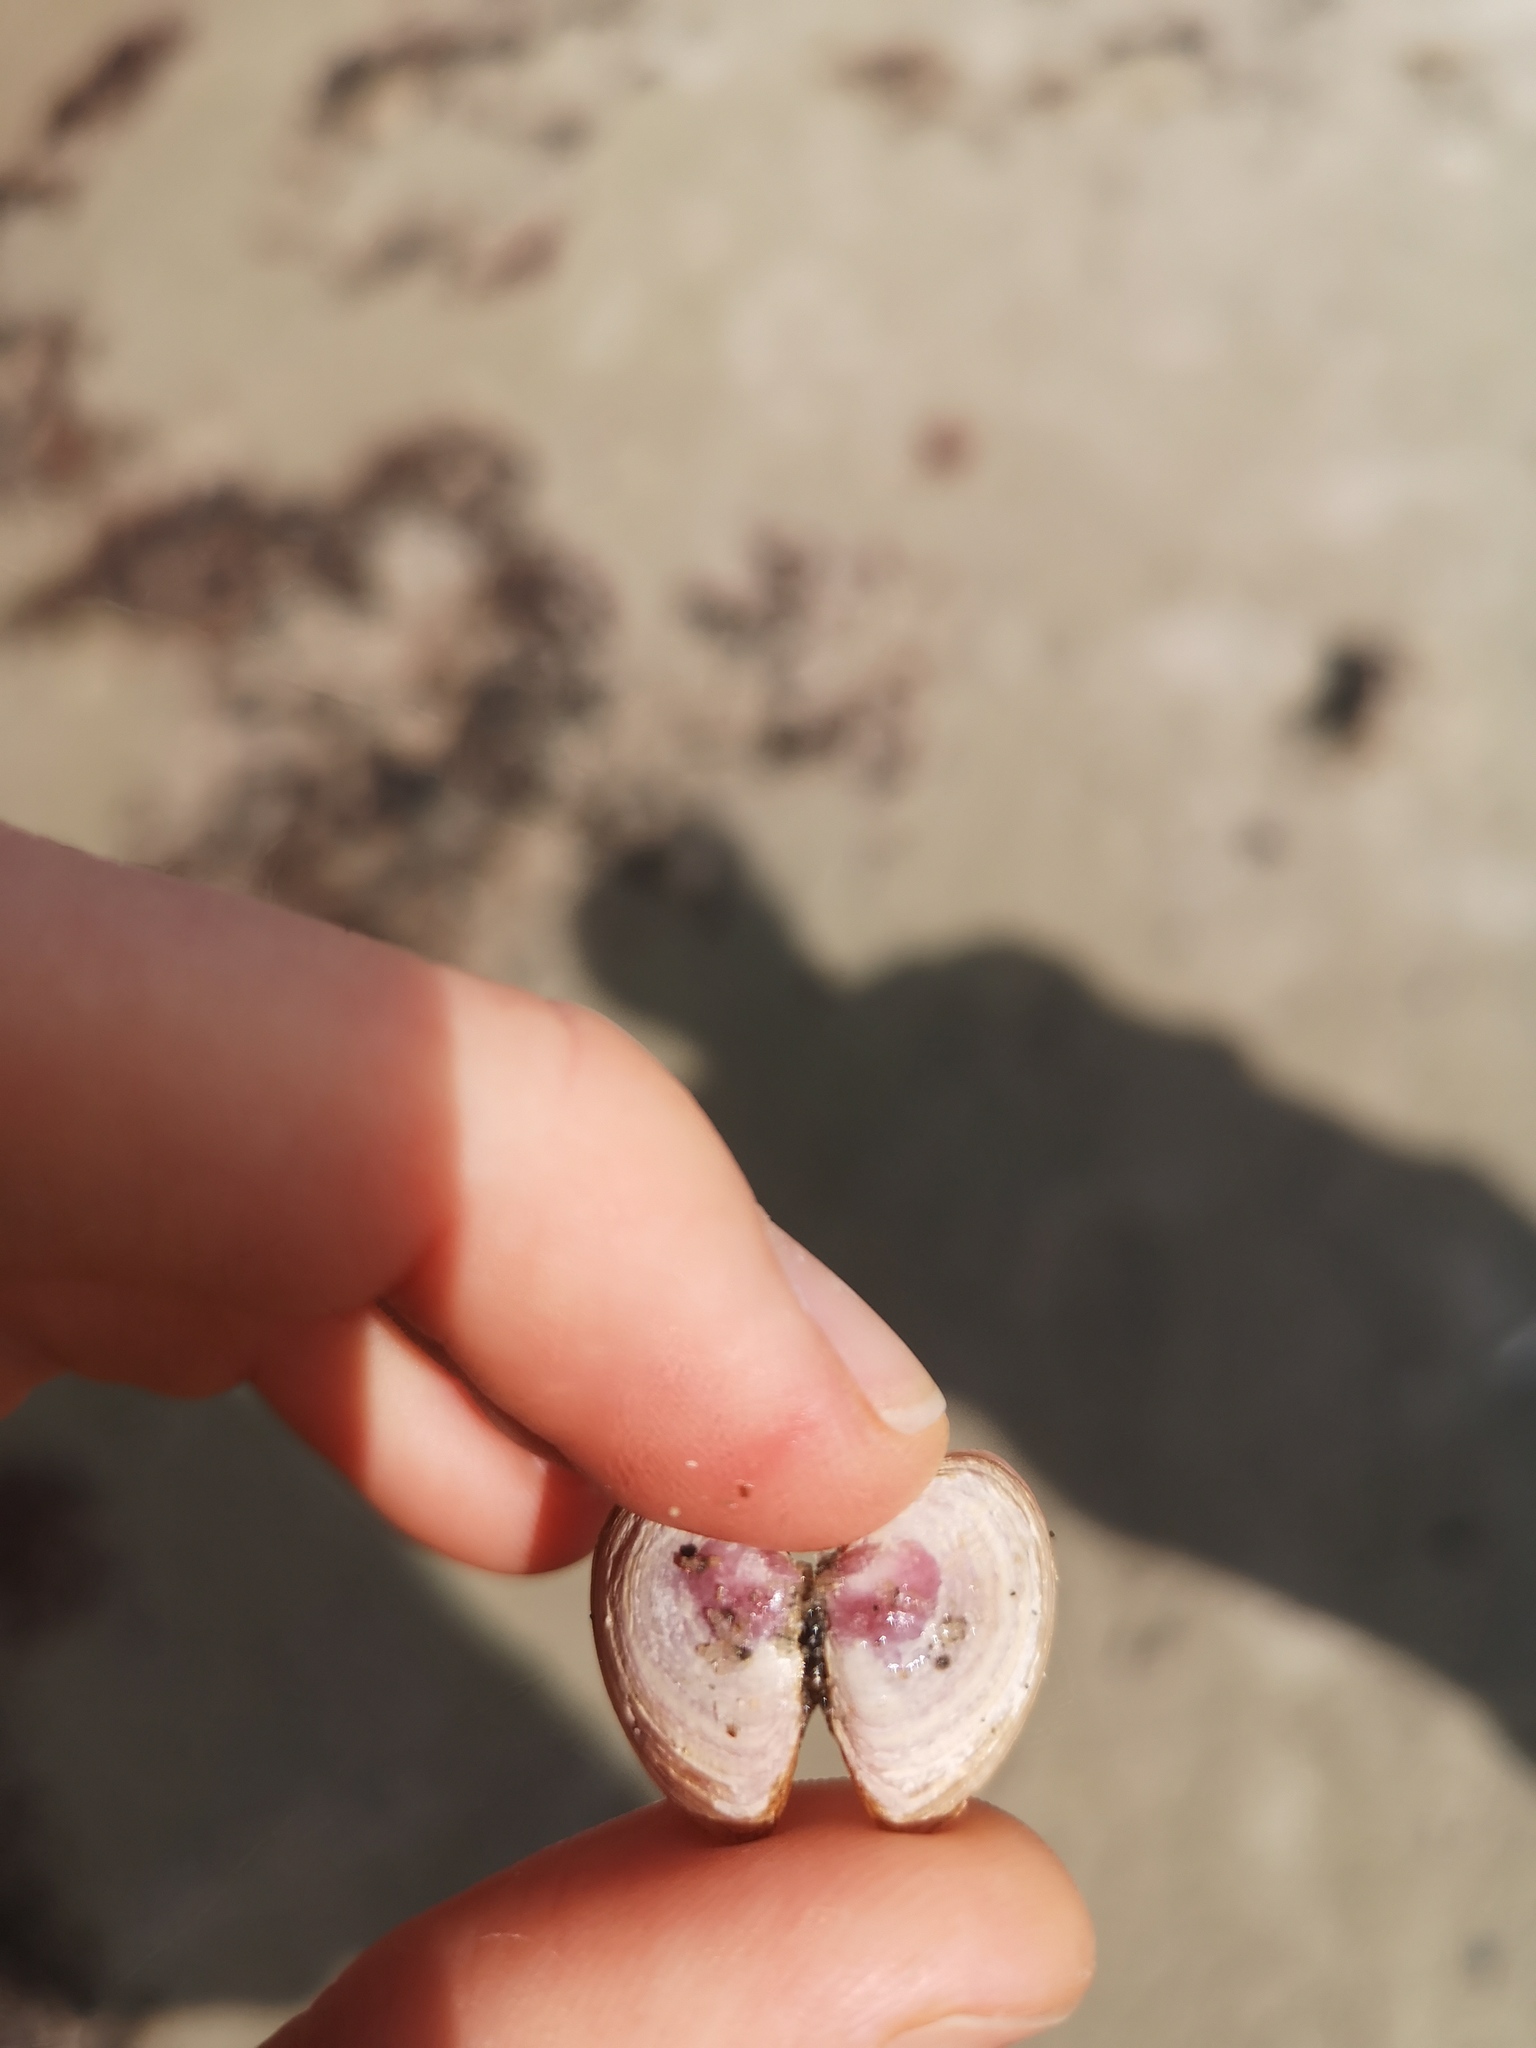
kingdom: Animalia
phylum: Mollusca
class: Bivalvia
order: Cardiida
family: Tellinidae
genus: Macoma
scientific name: Macoma balthica
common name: Baltic tellin
